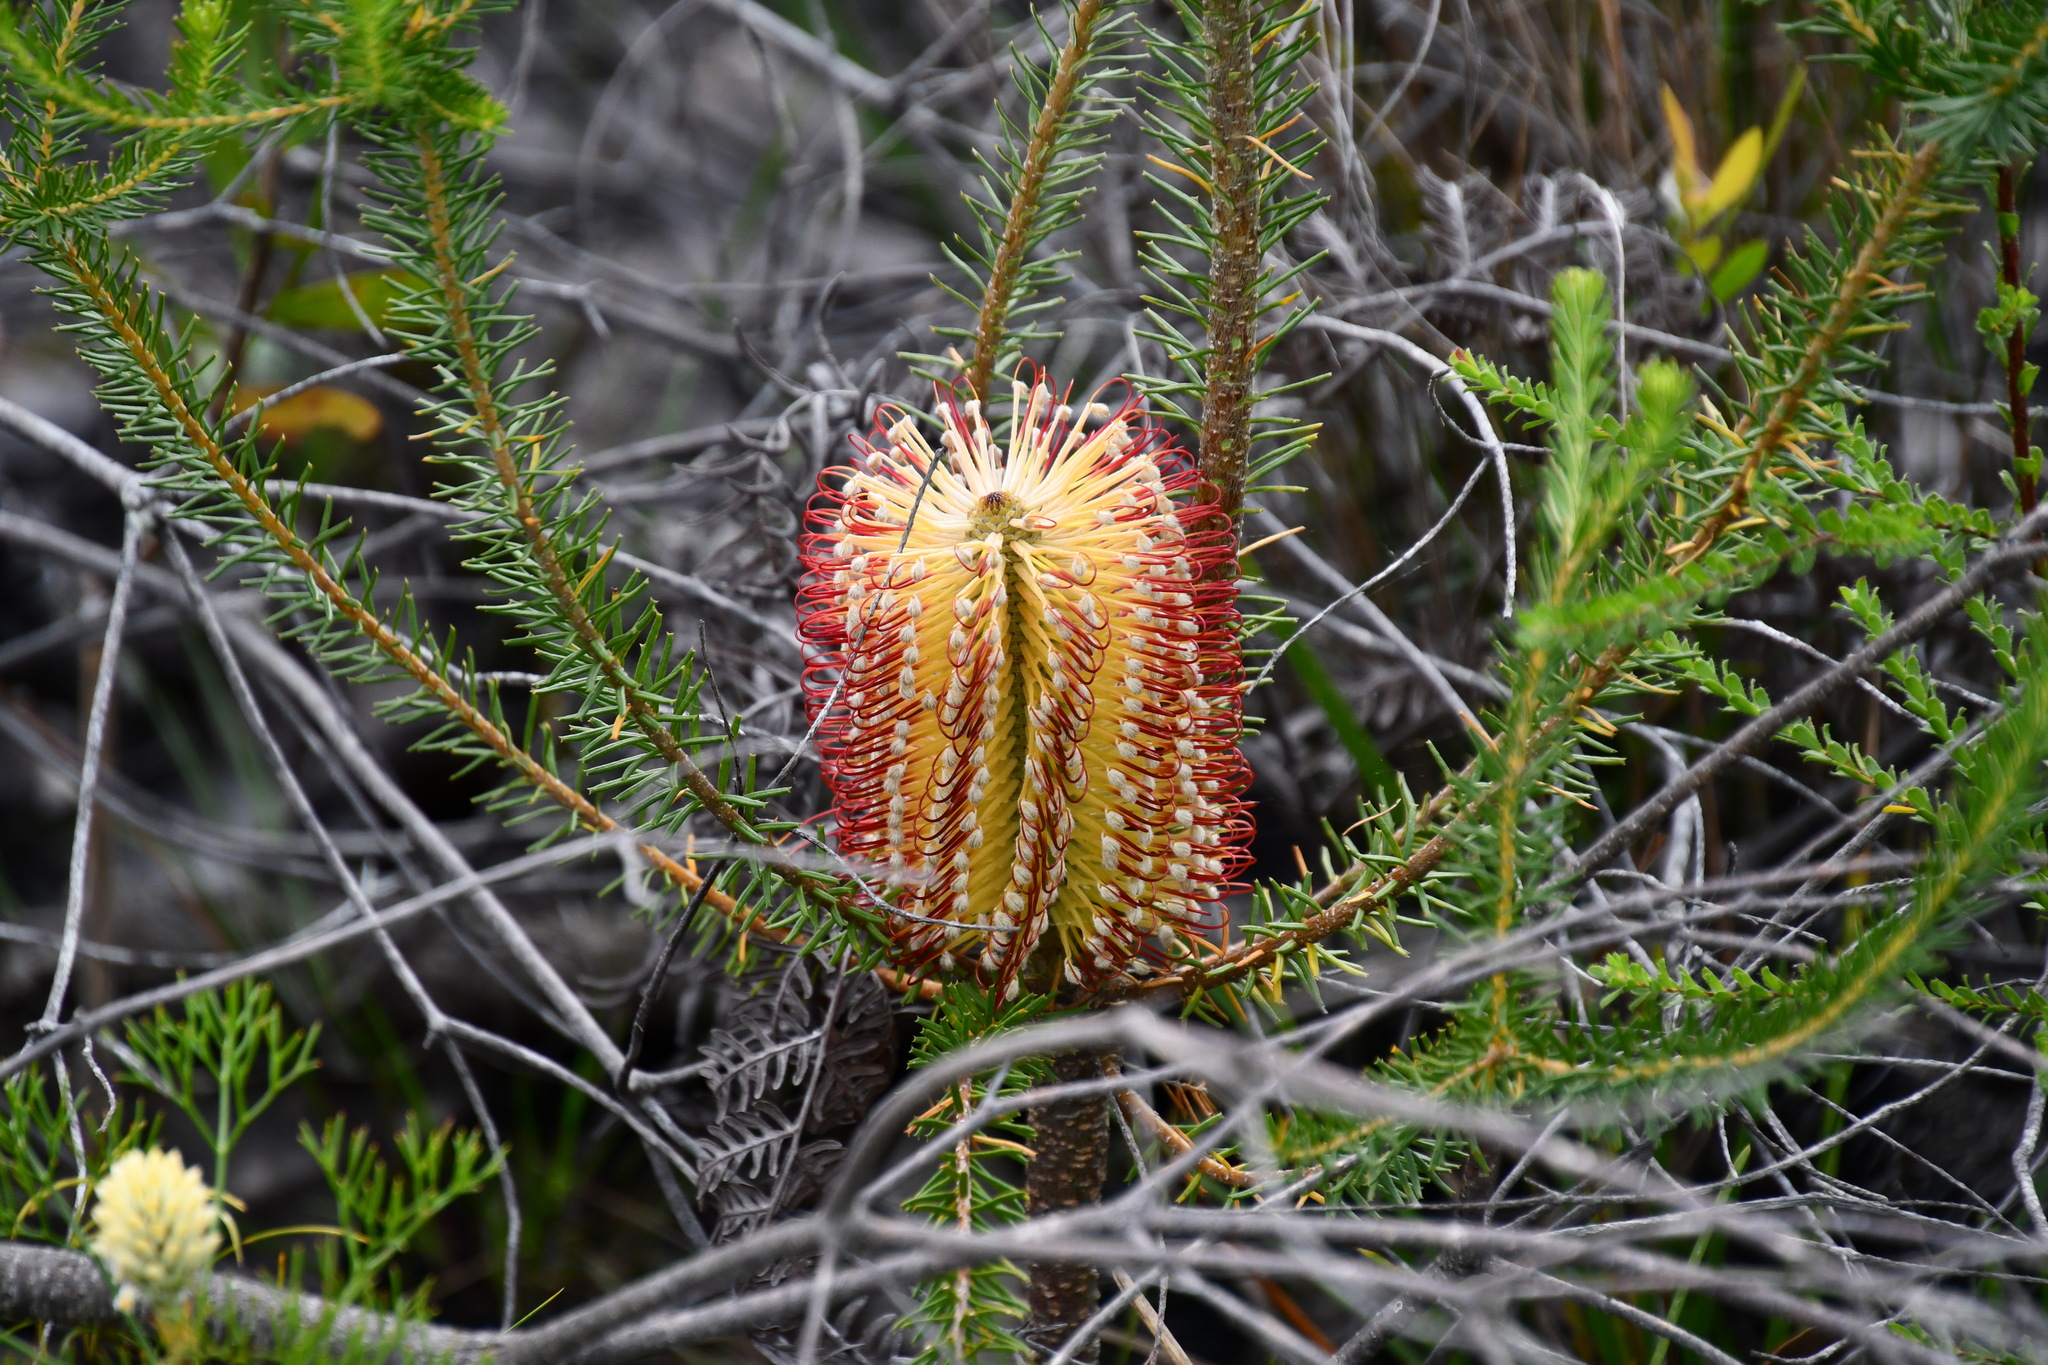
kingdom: Plantae
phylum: Tracheophyta
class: Magnoliopsida
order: Proteales
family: Proteaceae
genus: Banksia
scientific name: Banksia ericifolia
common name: Heath-leaf banksia
